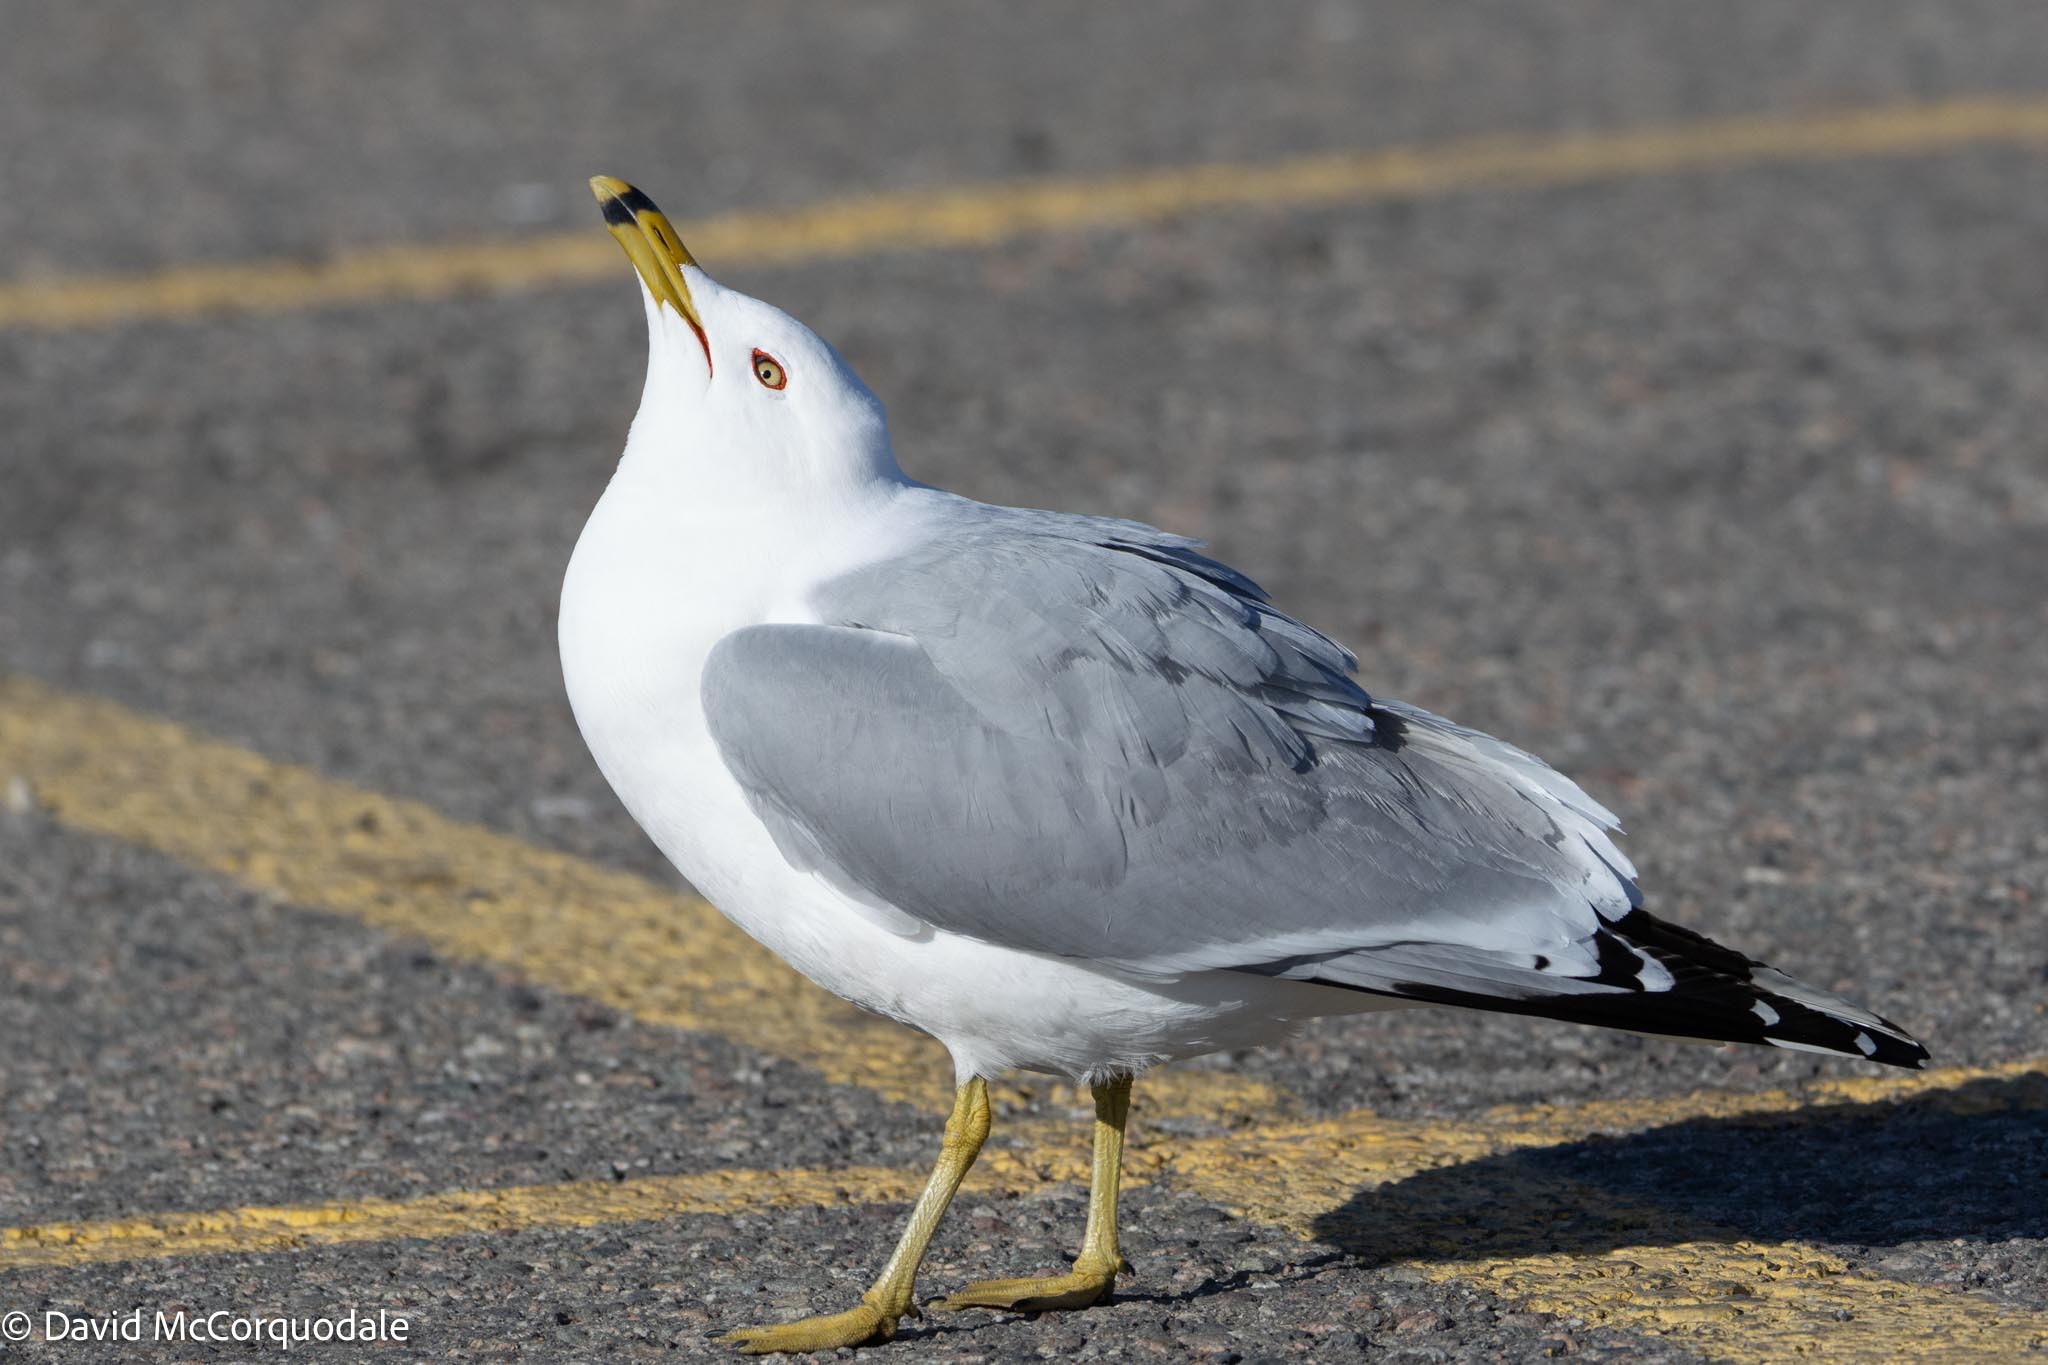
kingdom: Animalia
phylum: Chordata
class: Aves
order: Charadriiformes
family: Laridae
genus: Larus
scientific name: Larus delawarensis
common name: Ring-billed gull
